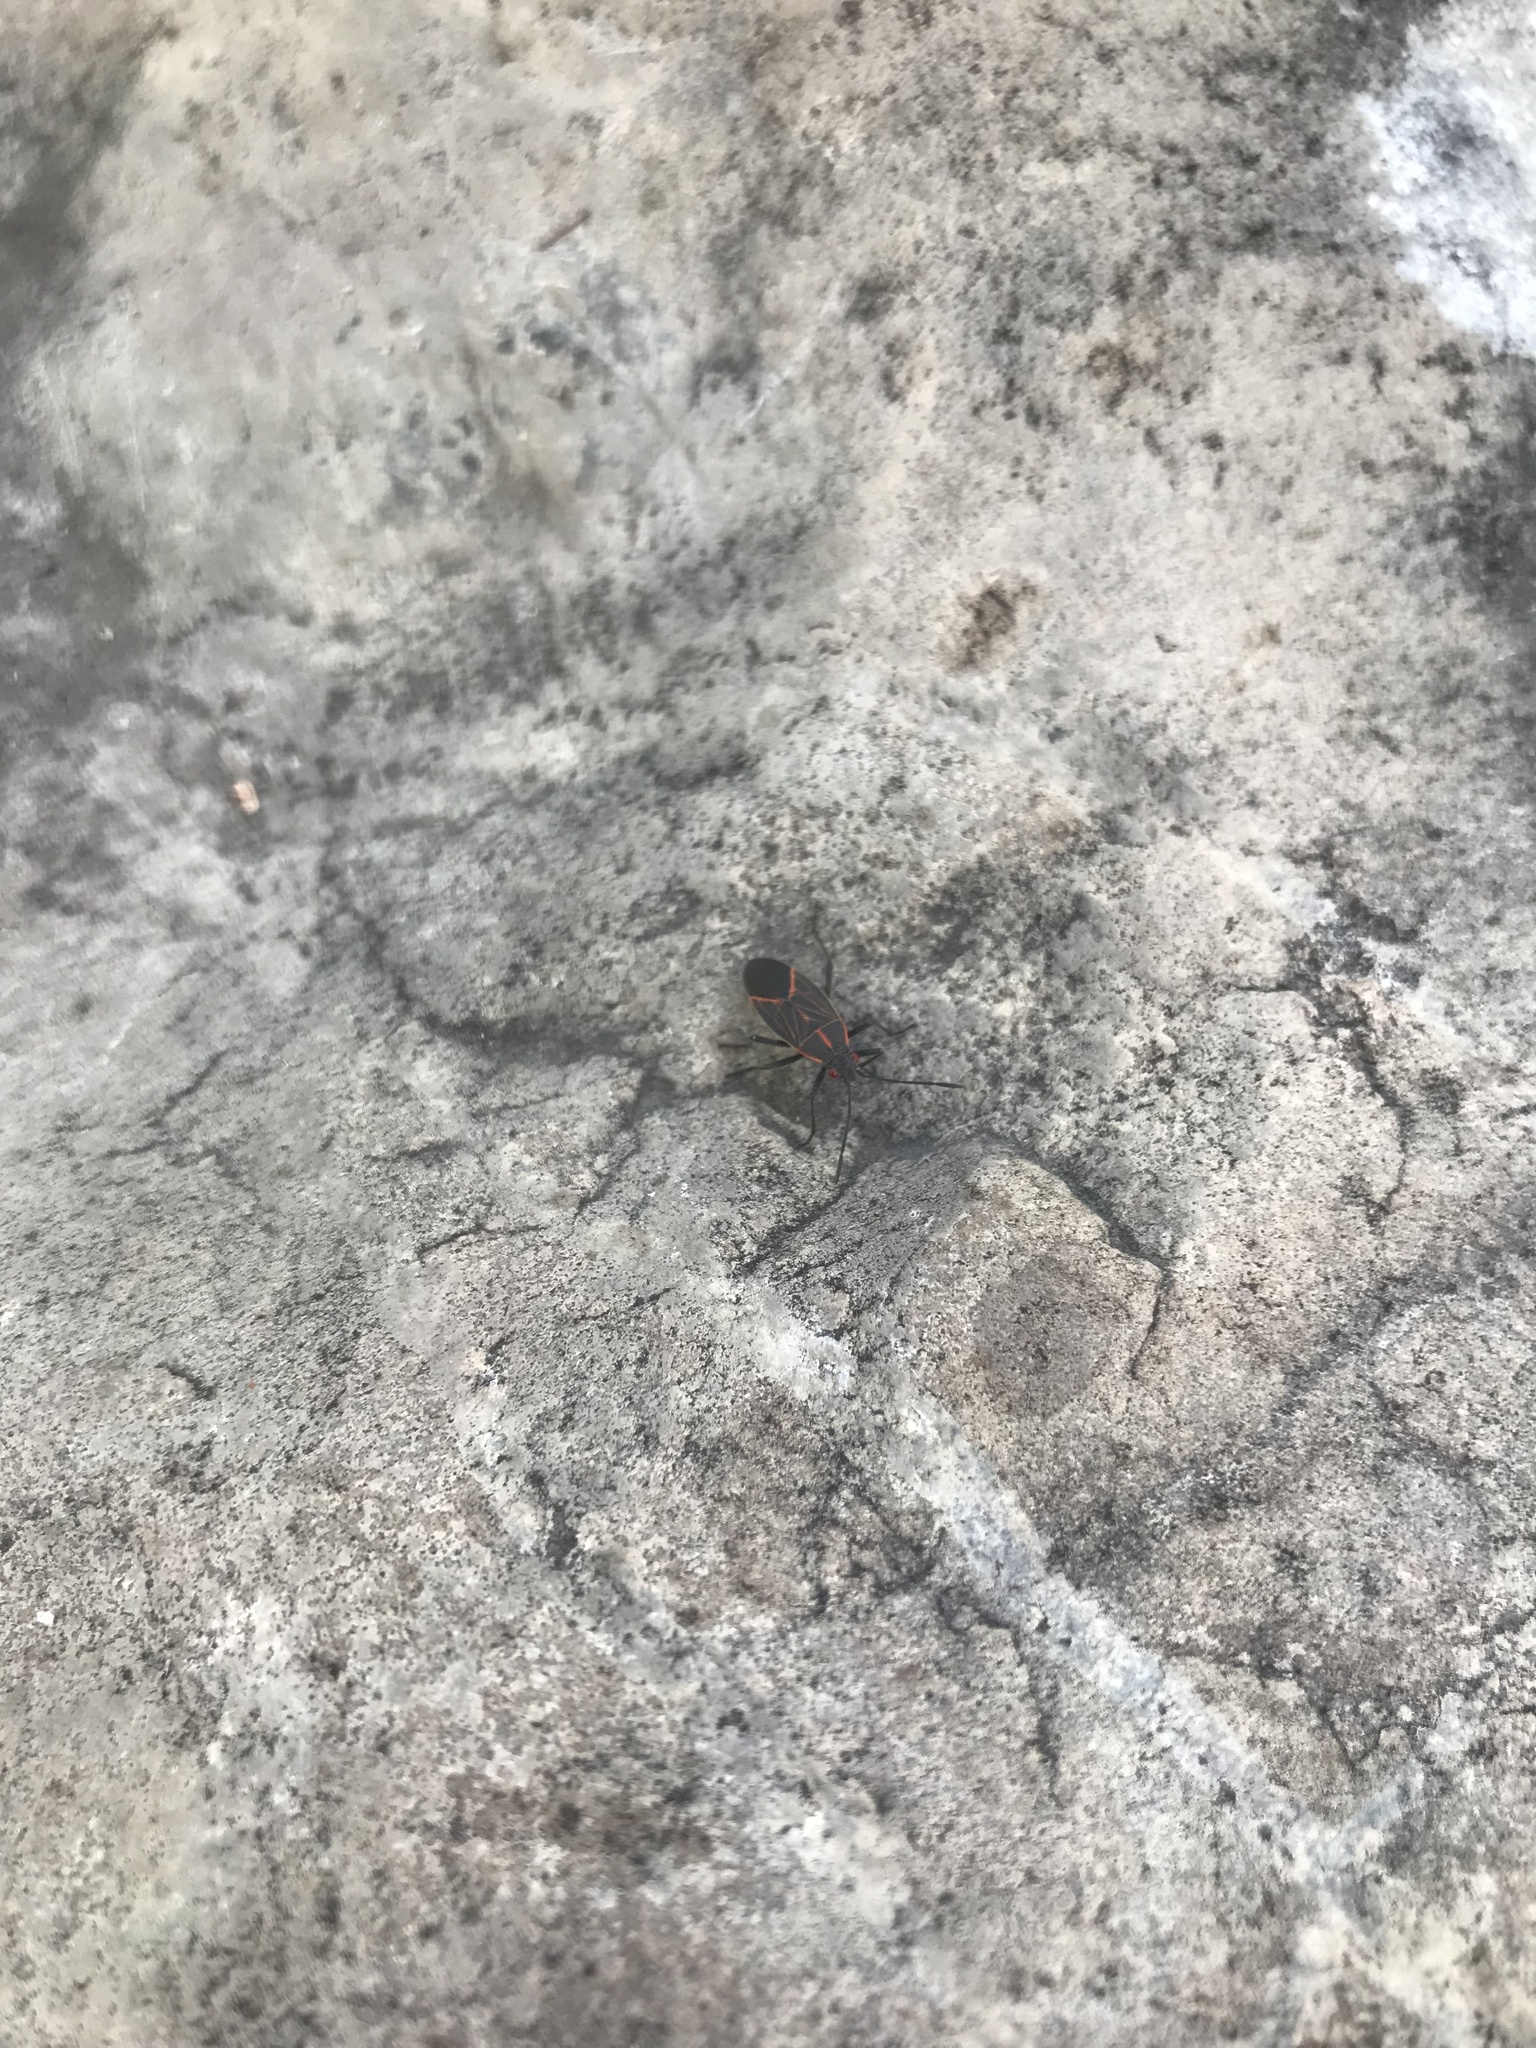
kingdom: Animalia
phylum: Arthropoda
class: Insecta
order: Hemiptera
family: Rhopalidae
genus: Boisea
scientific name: Boisea rubrolineata
